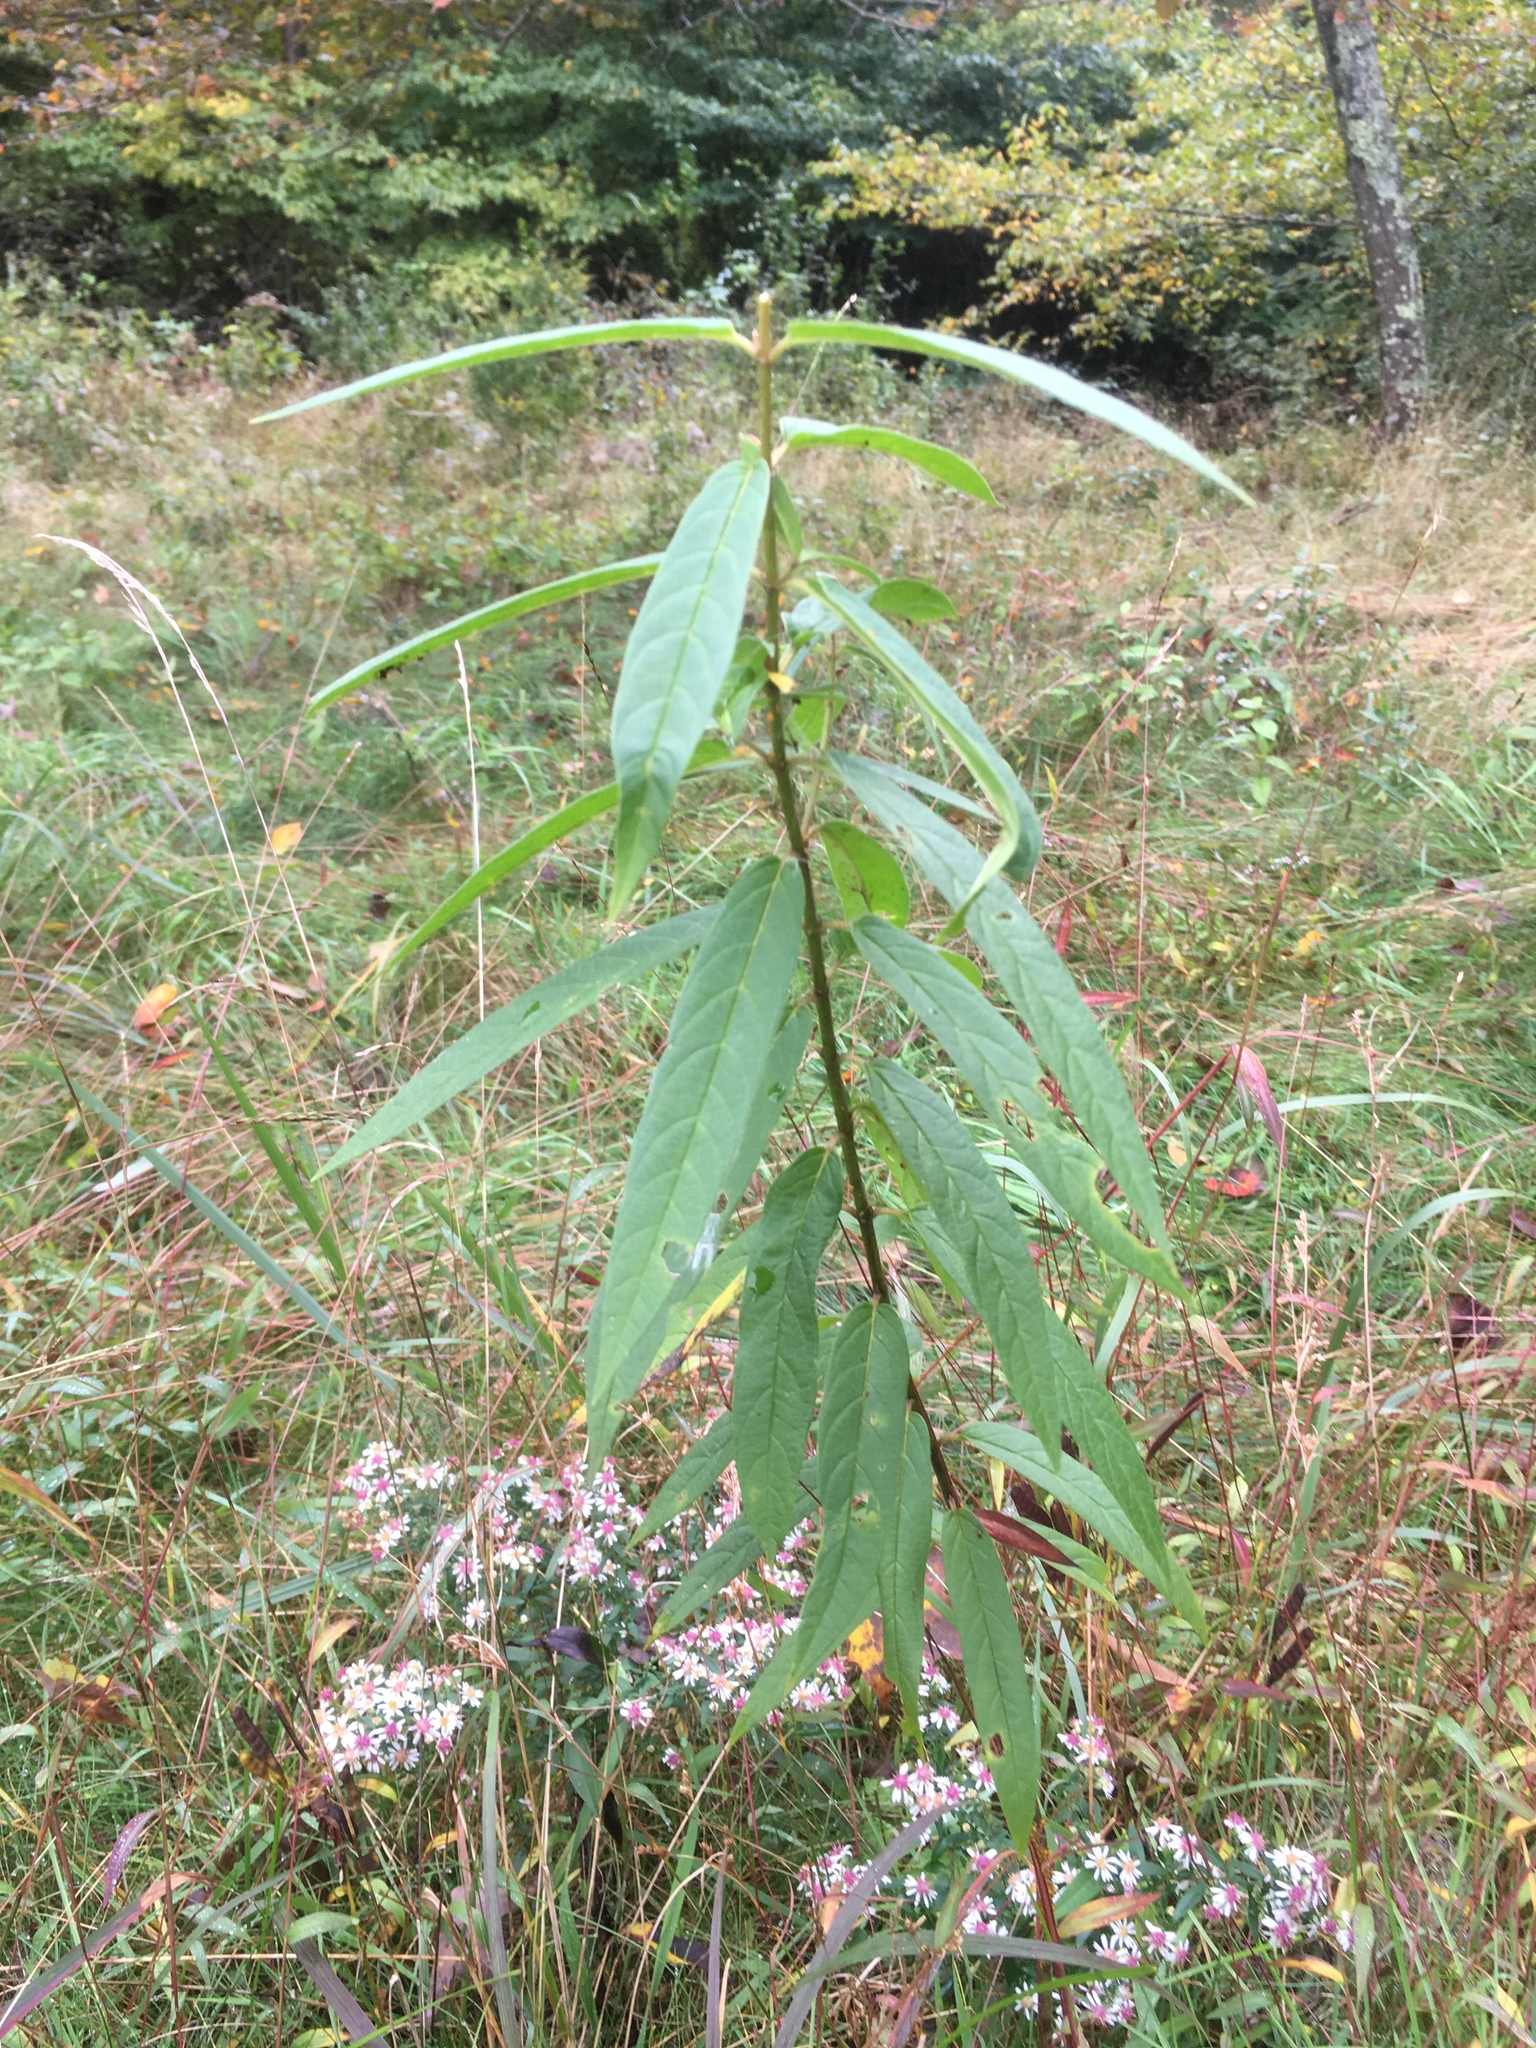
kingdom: Plantae
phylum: Tracheophyta
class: Magnoliopsida
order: Gentianales
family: Apocynaceae
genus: Asclepias
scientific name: Asclepias incarnata
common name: Swamp milkweed
